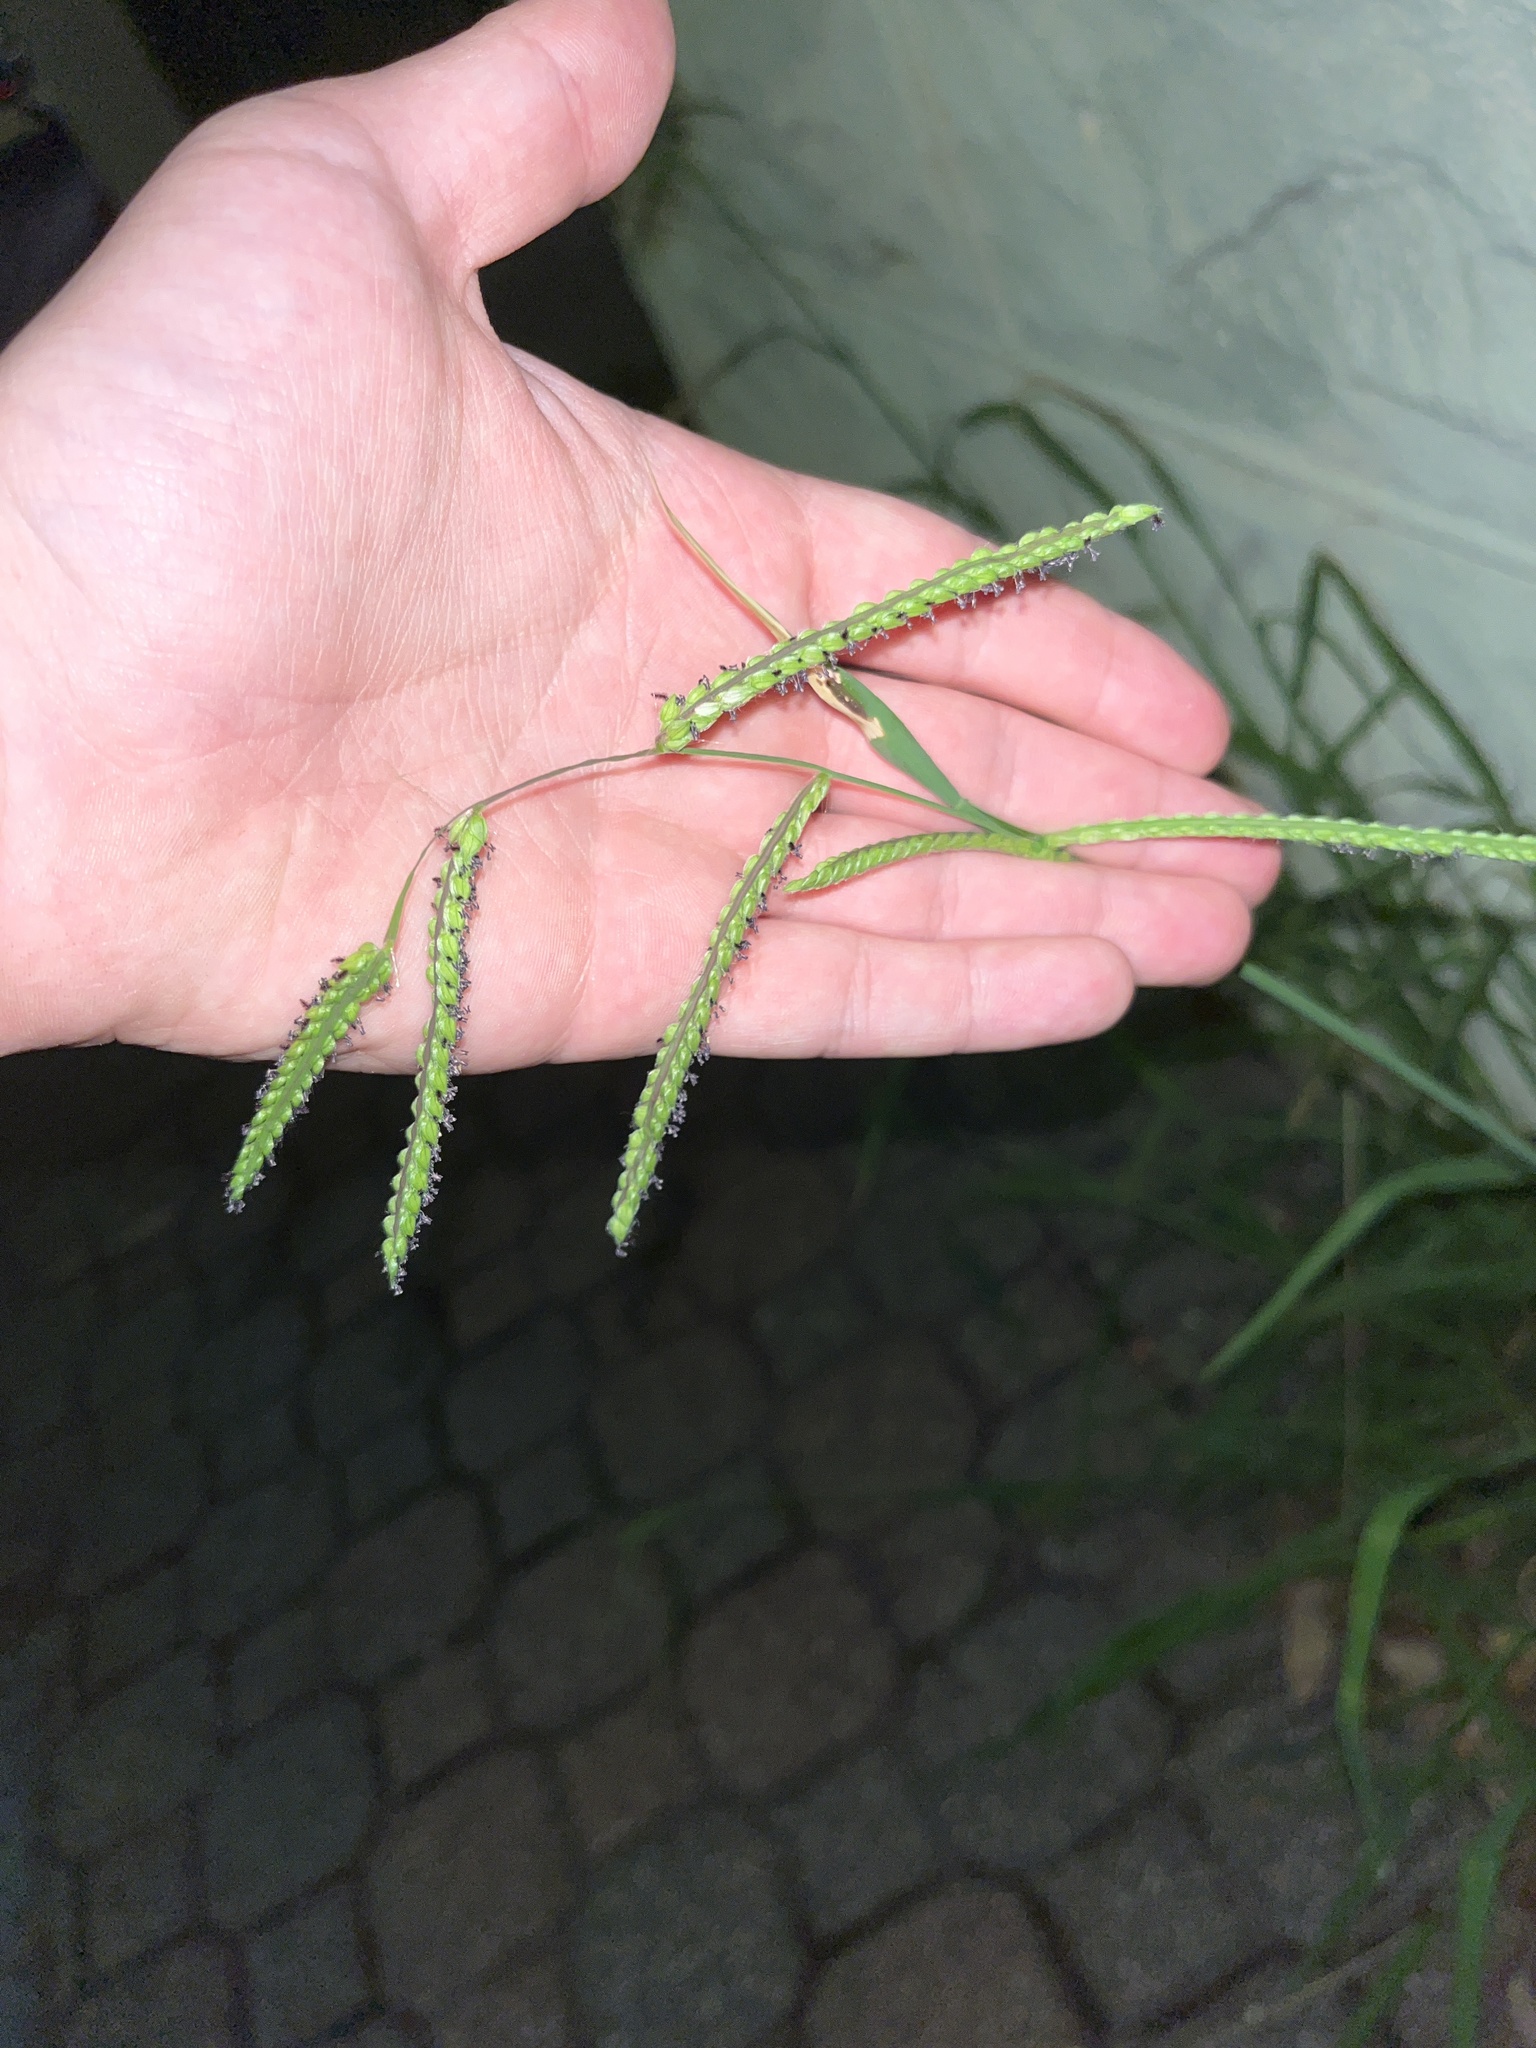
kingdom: Plantae
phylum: Tracheophyta
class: Liliopsida
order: Poales
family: Poaceae
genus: Paspalum
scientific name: Paspalum dilatatum
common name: Dallisgrass
